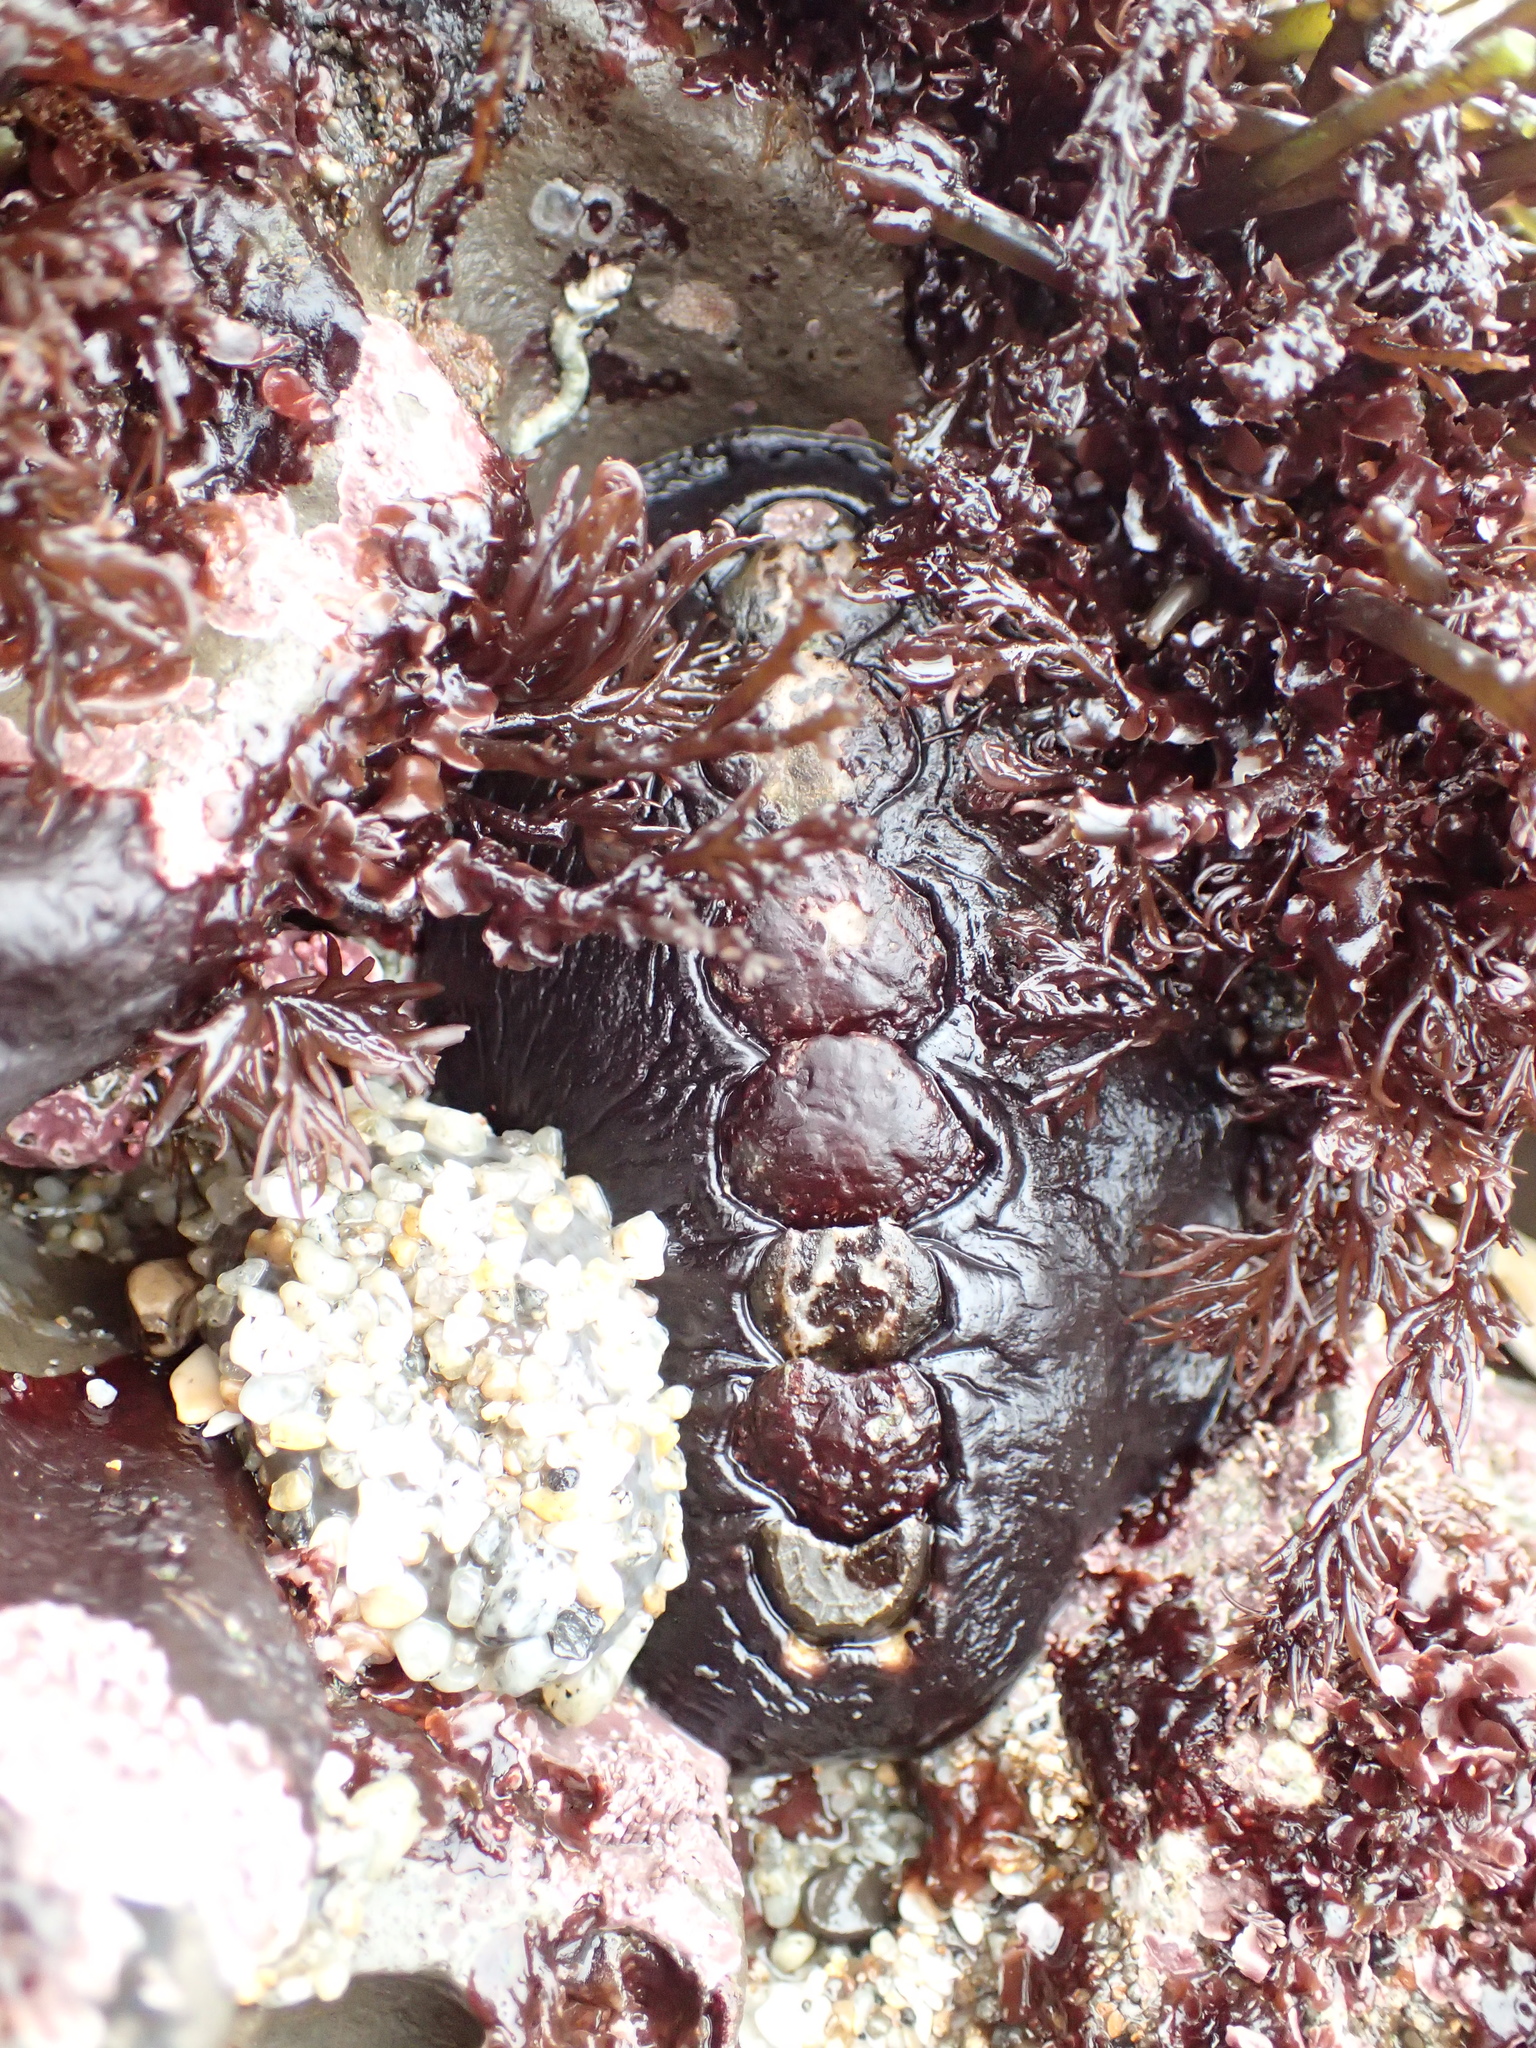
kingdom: Animalia
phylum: Mollusca
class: Polyplacophora
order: Chitonida
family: Mopaliidae
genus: Katharina
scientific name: Katharina tunicata
